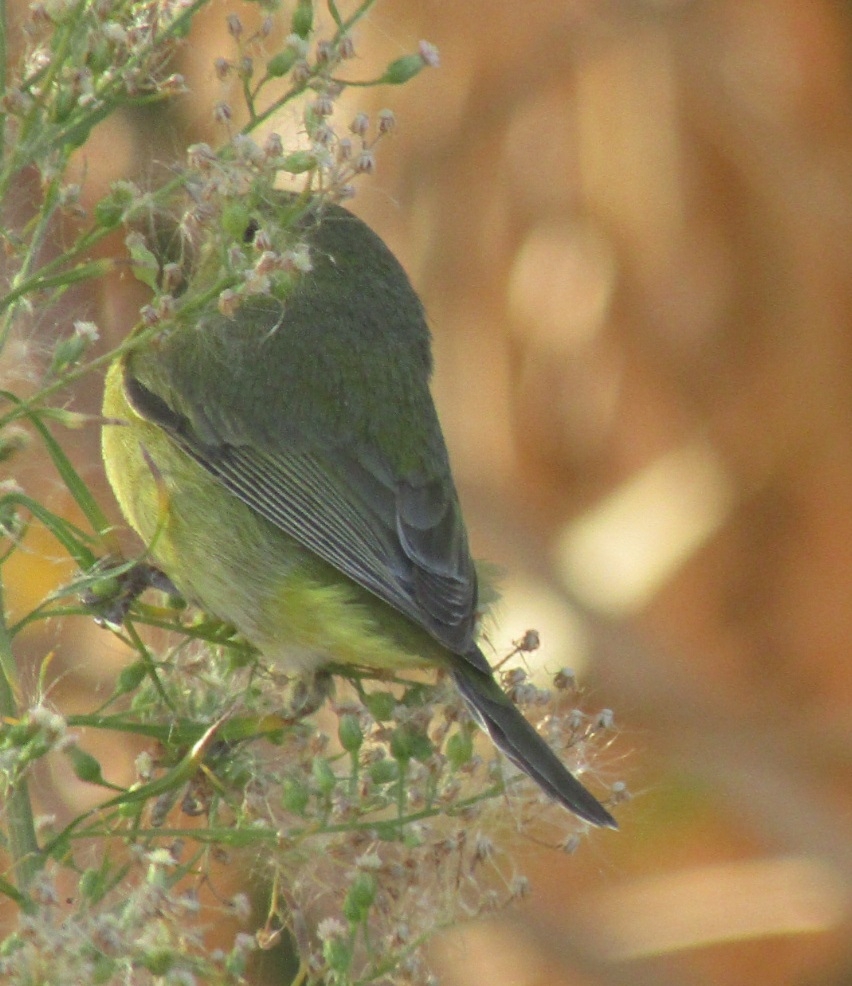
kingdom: Animalia
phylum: Chordata
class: Aves
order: Passeriformes
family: Parulidae
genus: Leiothlypis
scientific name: Leiothlypis celata
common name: Orange-crowned warbler
